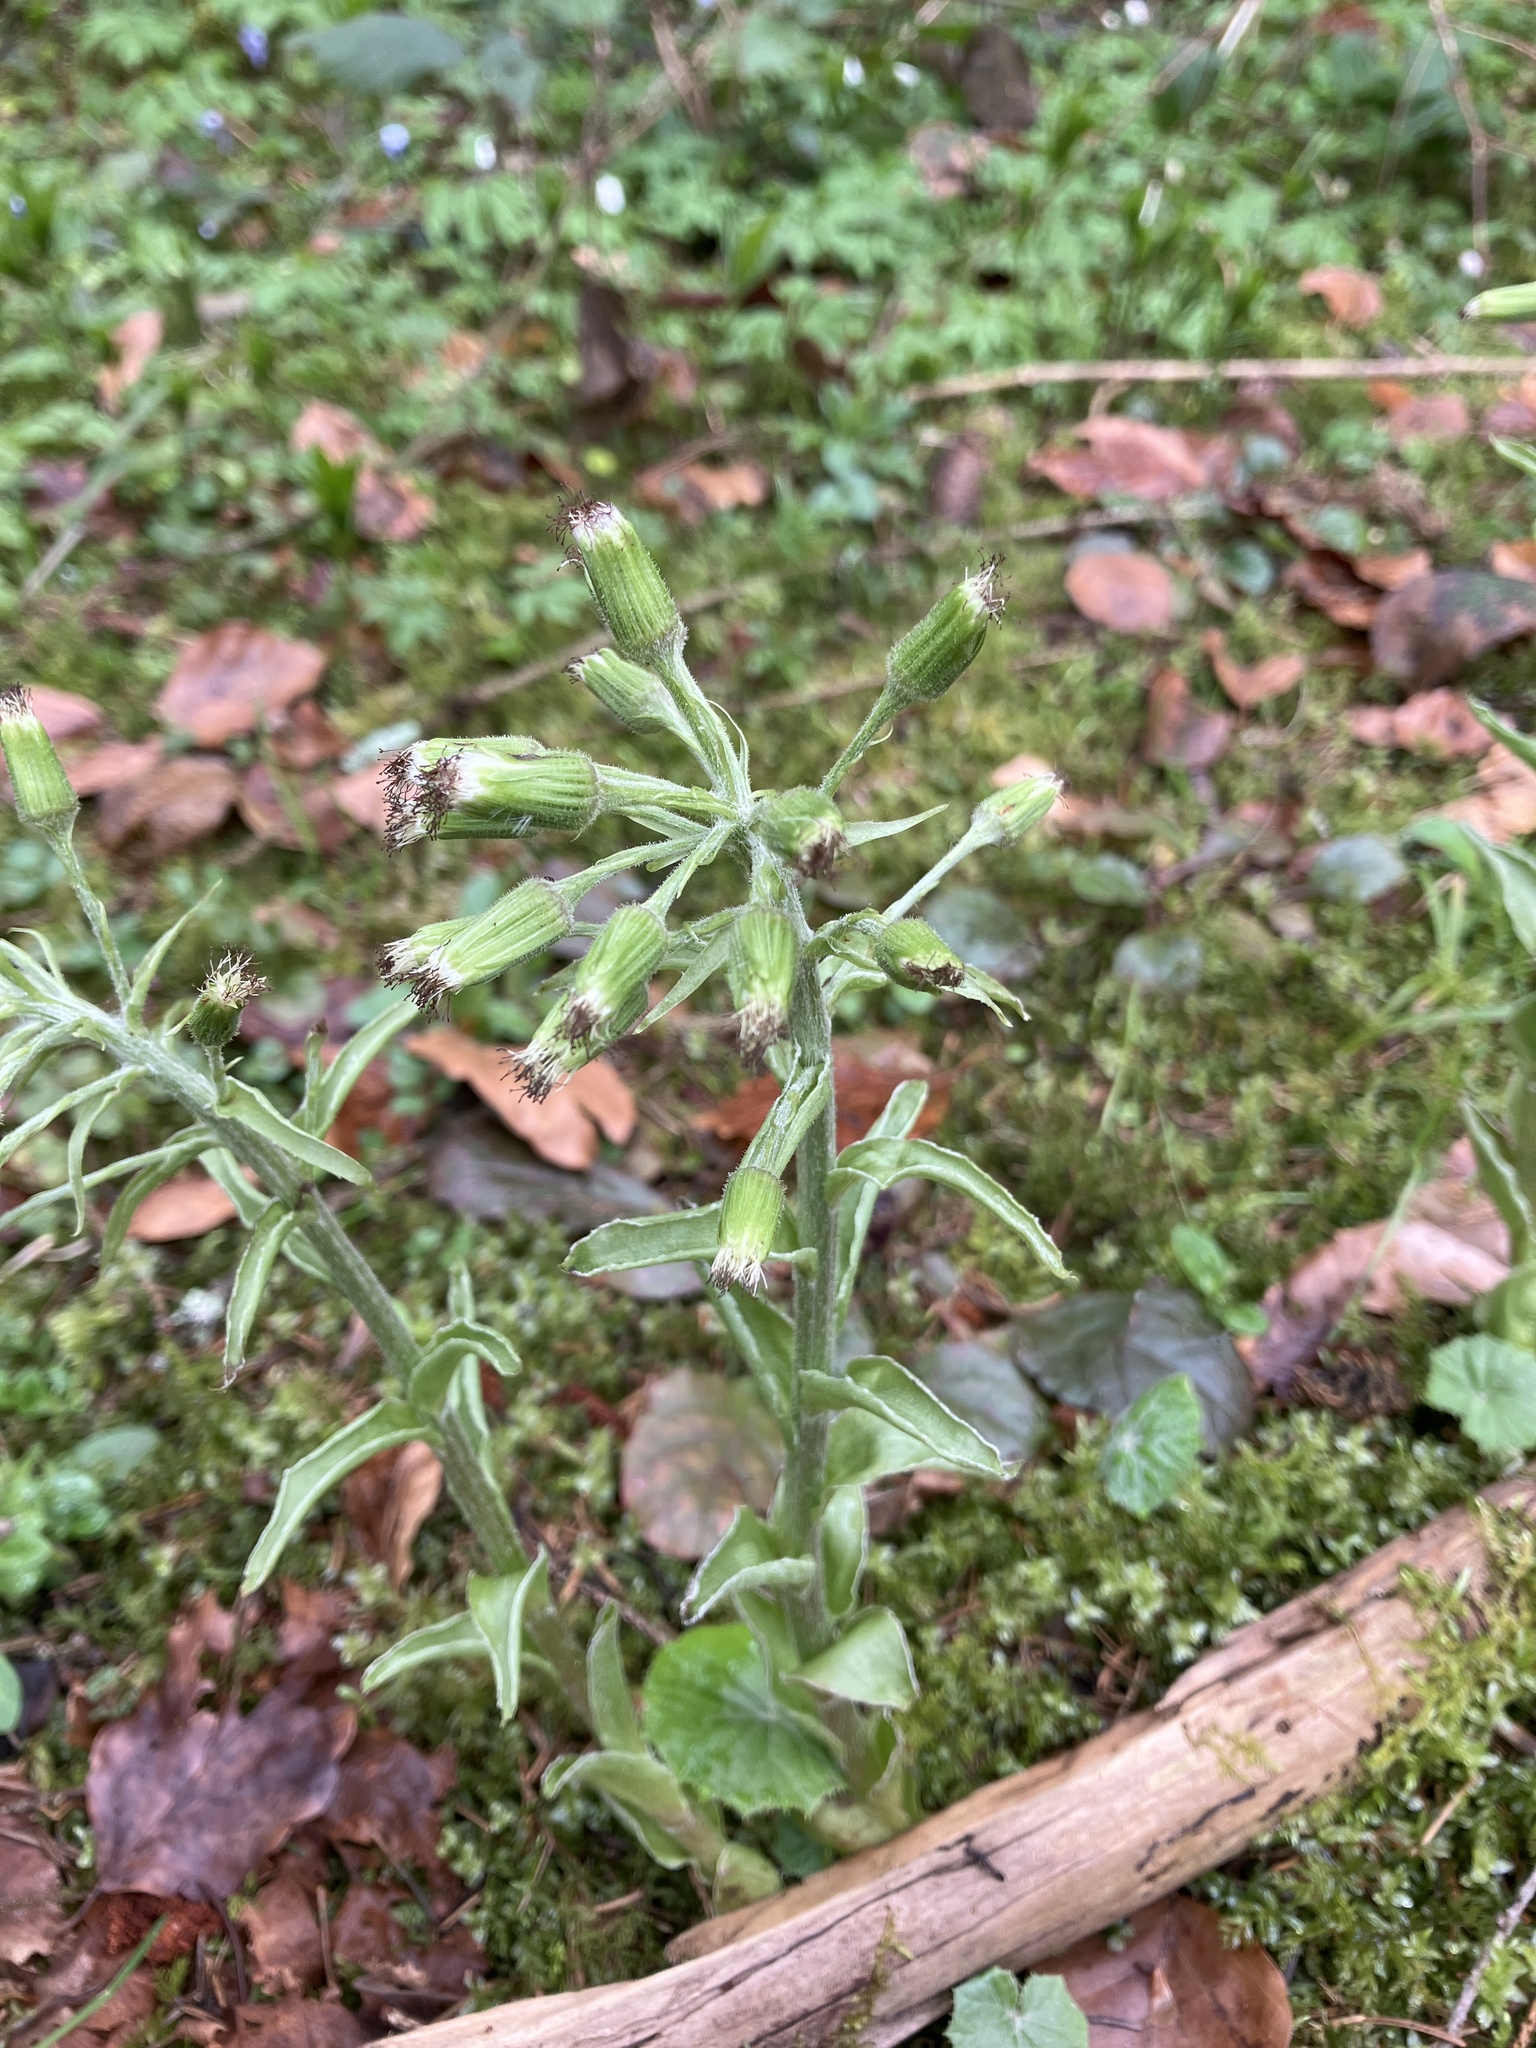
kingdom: Plantae
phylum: Tracheophyta
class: Magnoliopsida
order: Asterales
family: Asteraceae
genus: Petasites
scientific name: Petasites albus
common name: White butterbur
